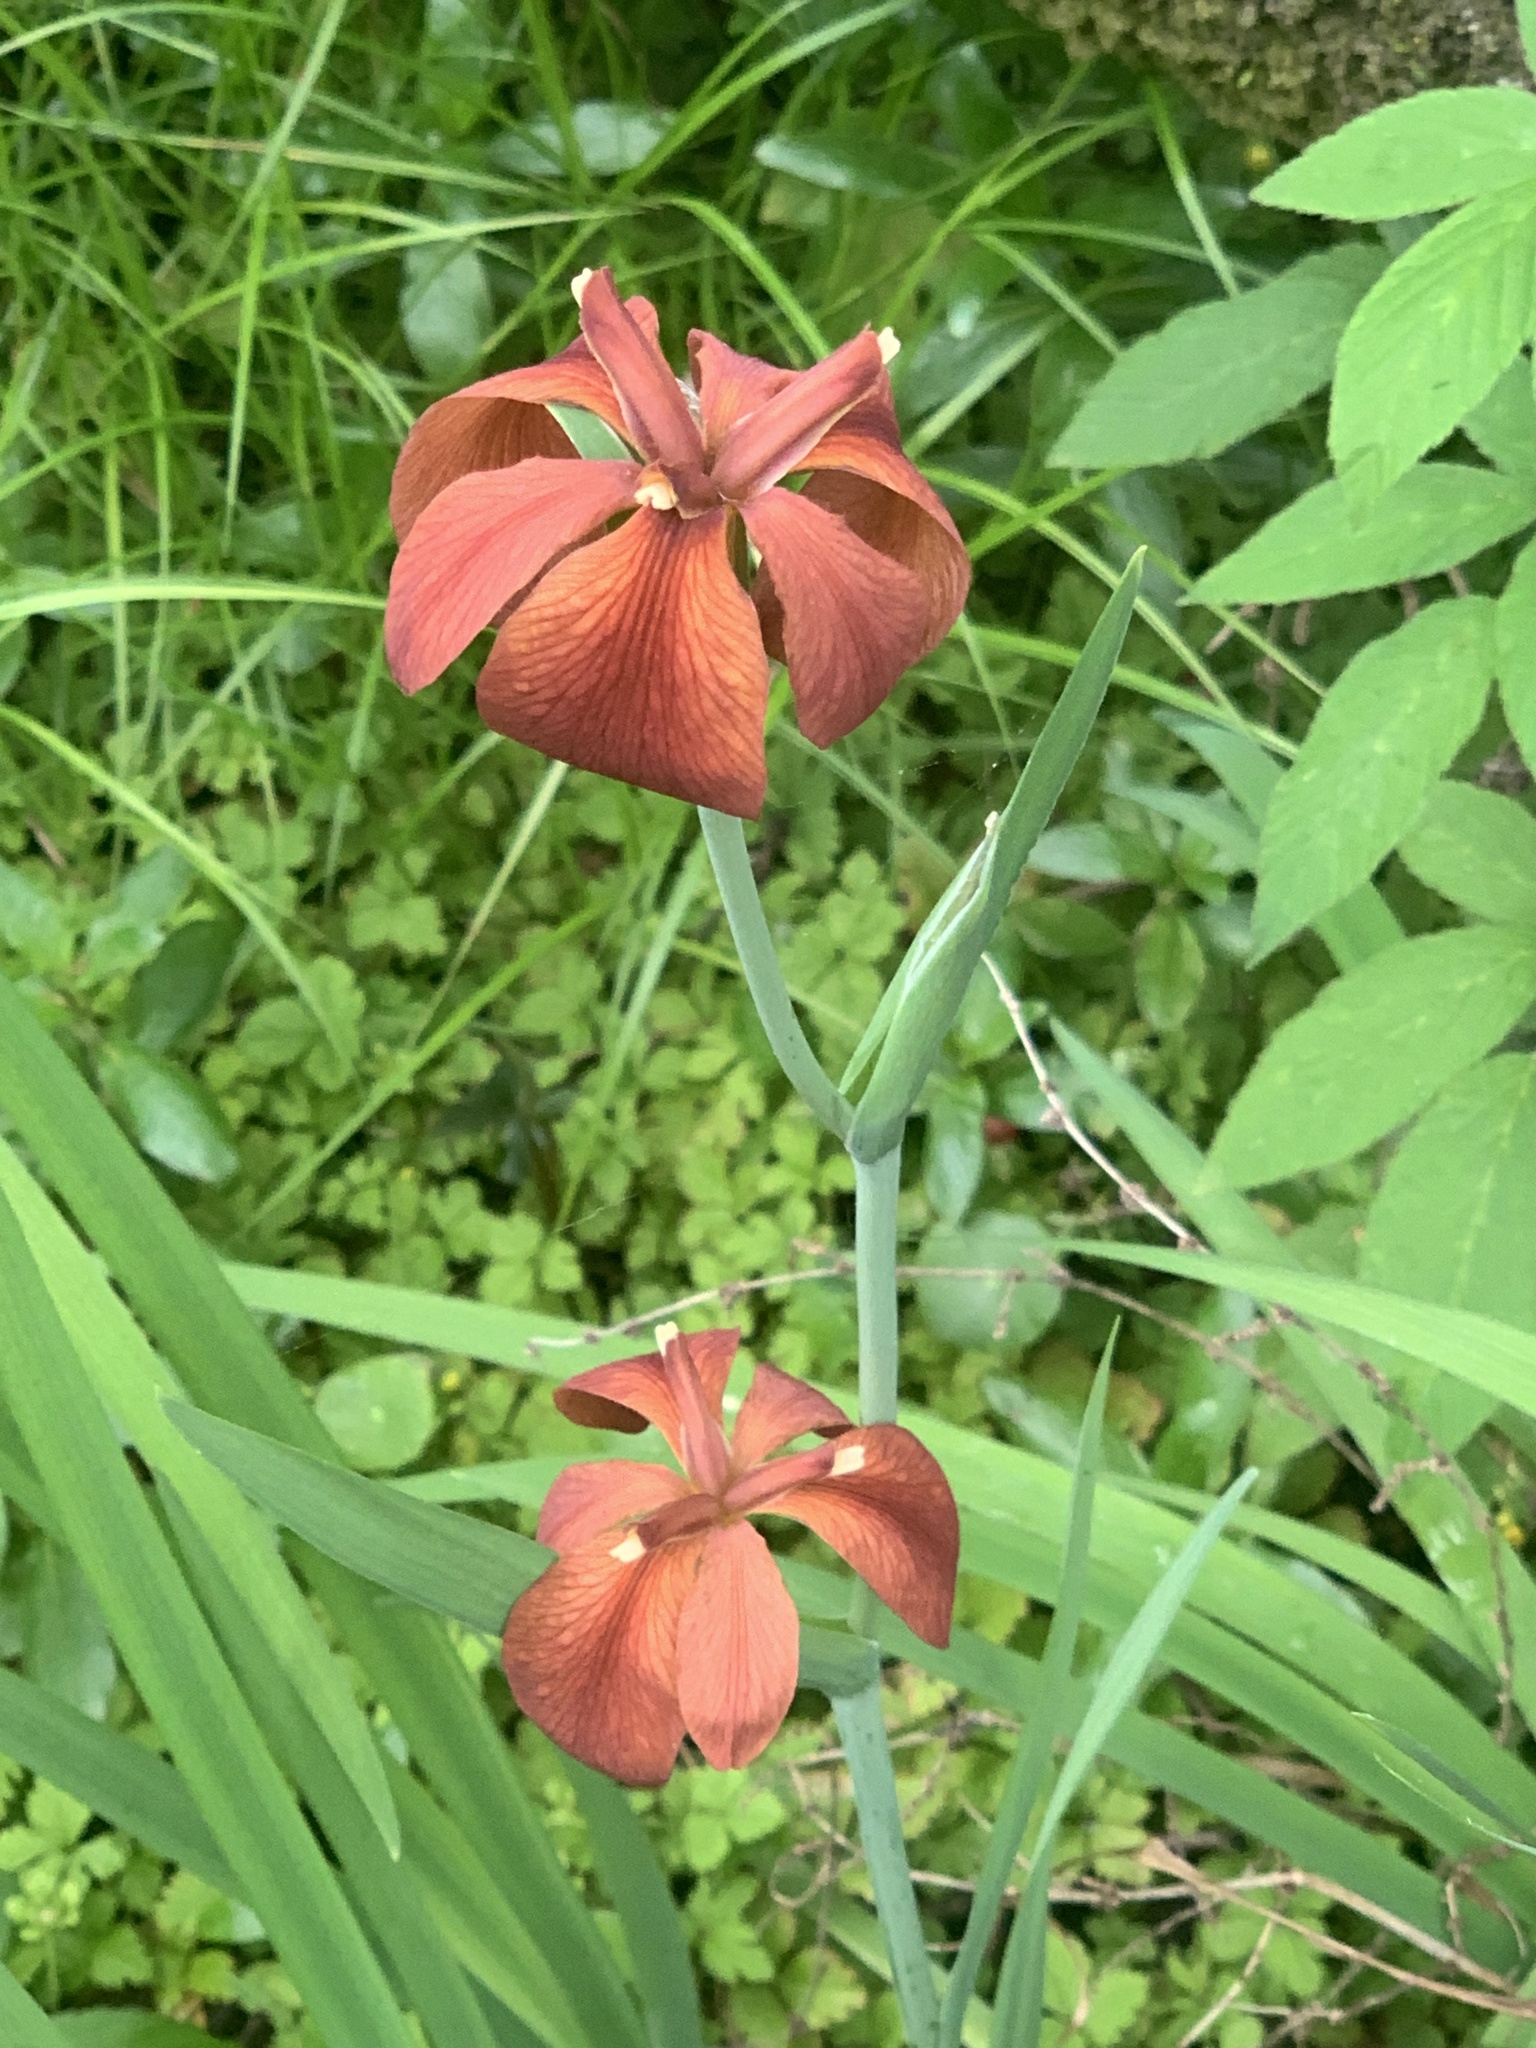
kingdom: Plantae
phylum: Tracheophyta
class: Liliopsida
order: Asparagales
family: Iridaceae
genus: Iris
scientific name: Iris fulva
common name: Copper iris
